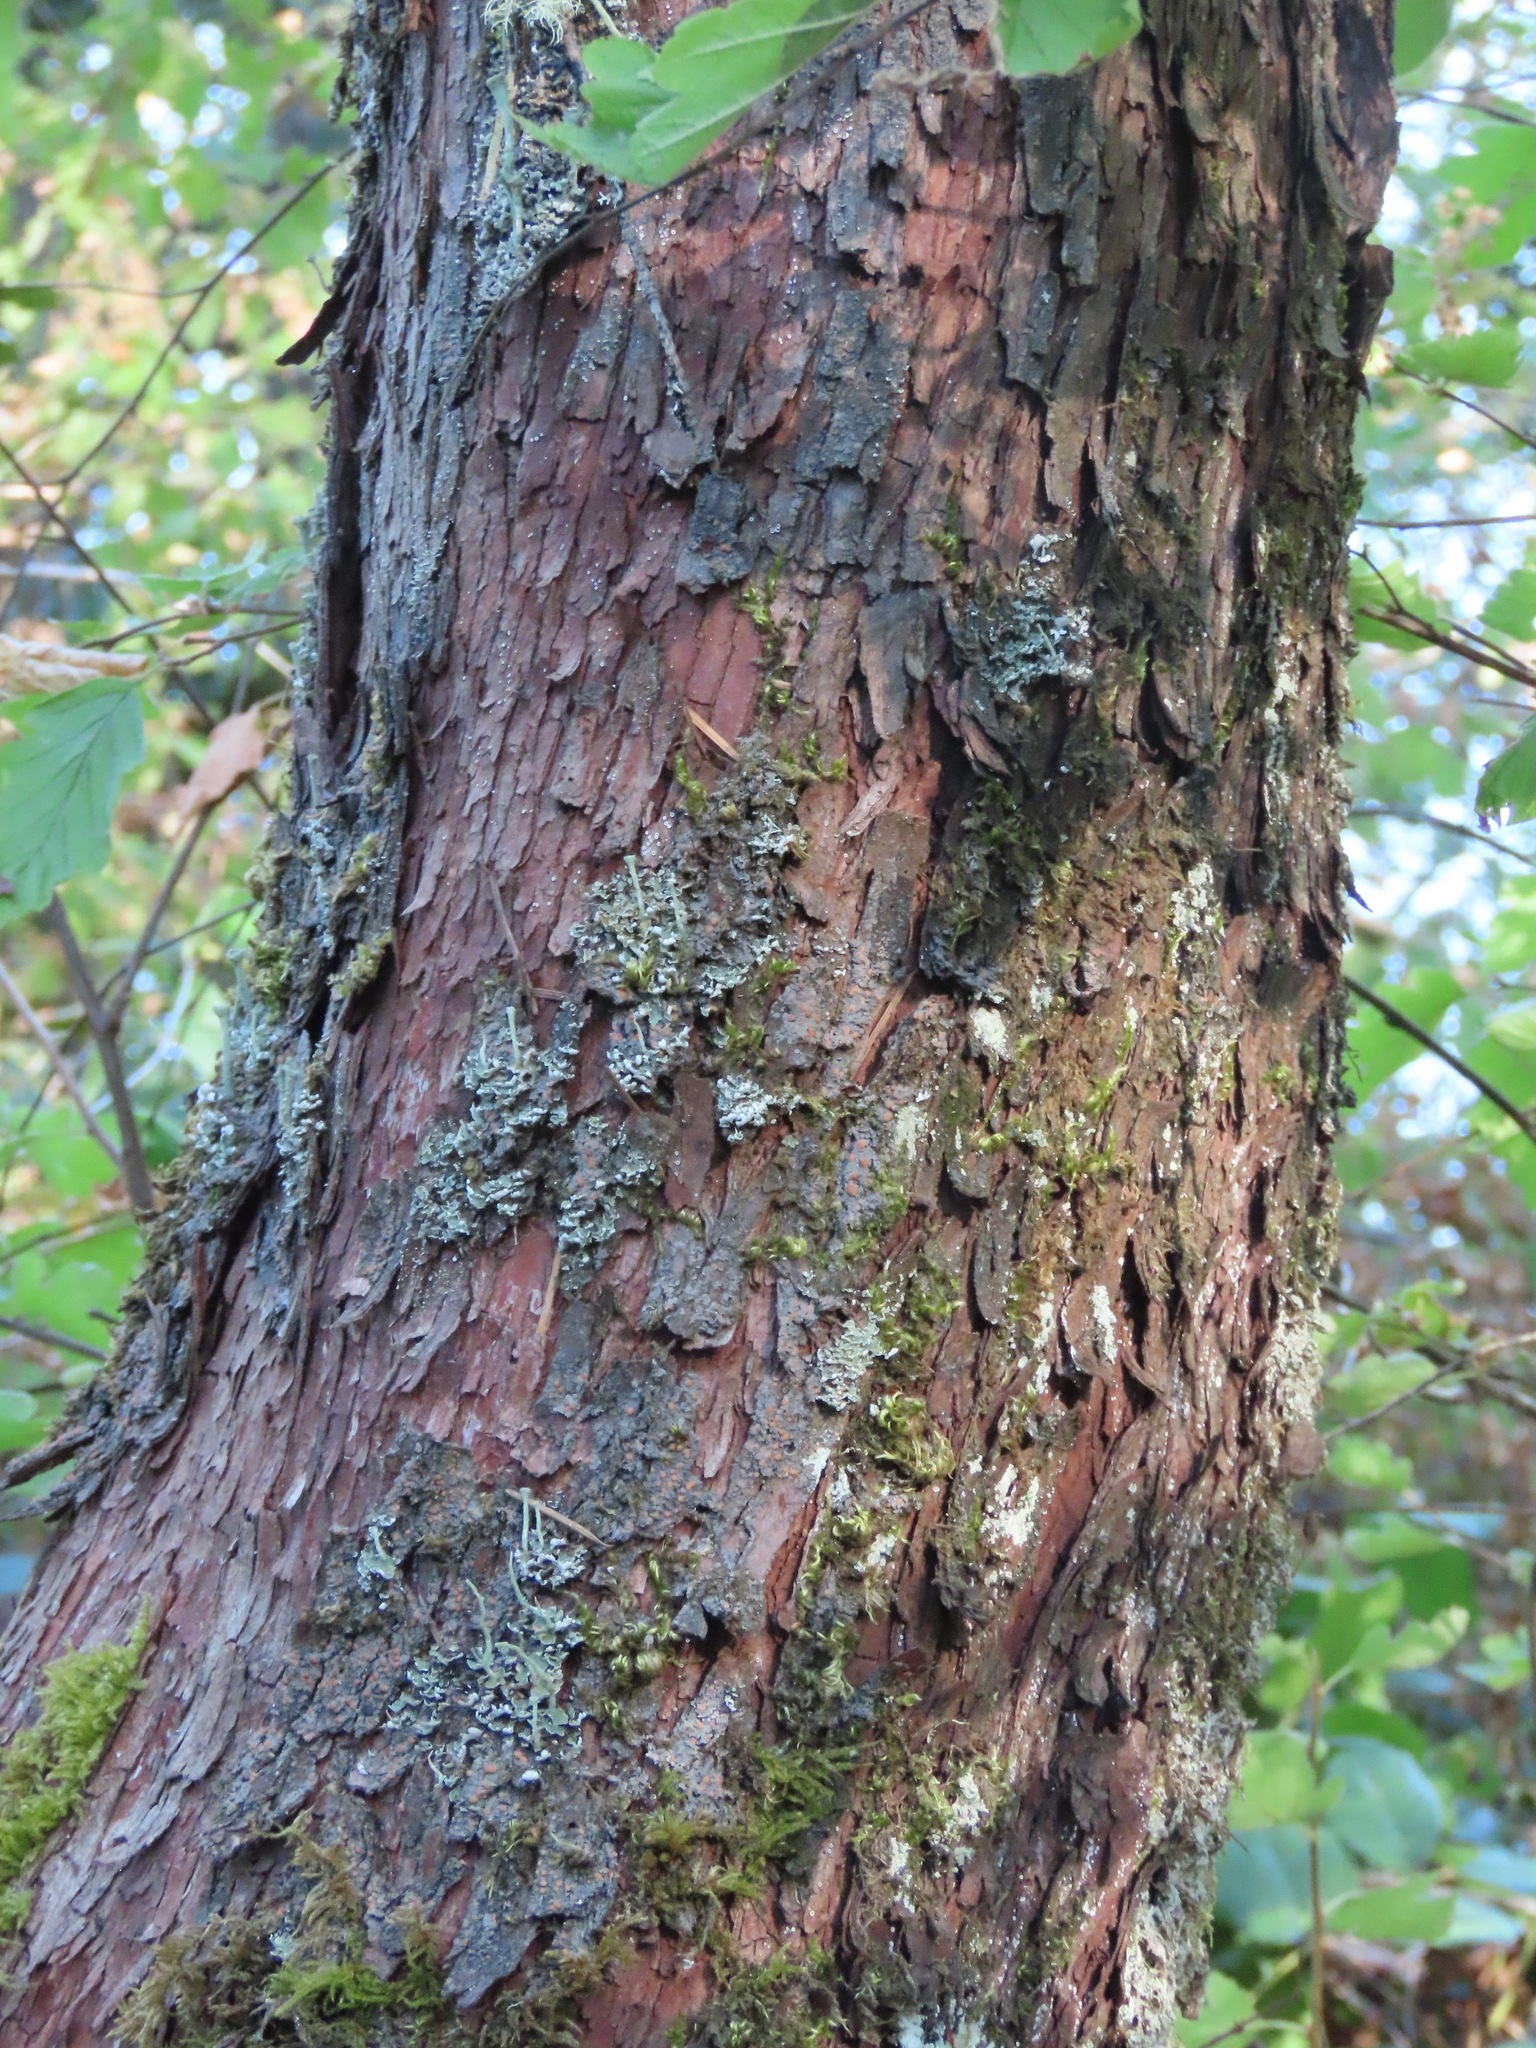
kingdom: Plantae
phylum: Tracheophyta
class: Magnoliopsida
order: Ericales
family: Ericaceae
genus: Arbutus
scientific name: Arbutus menziesii
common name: Pacific madrone
